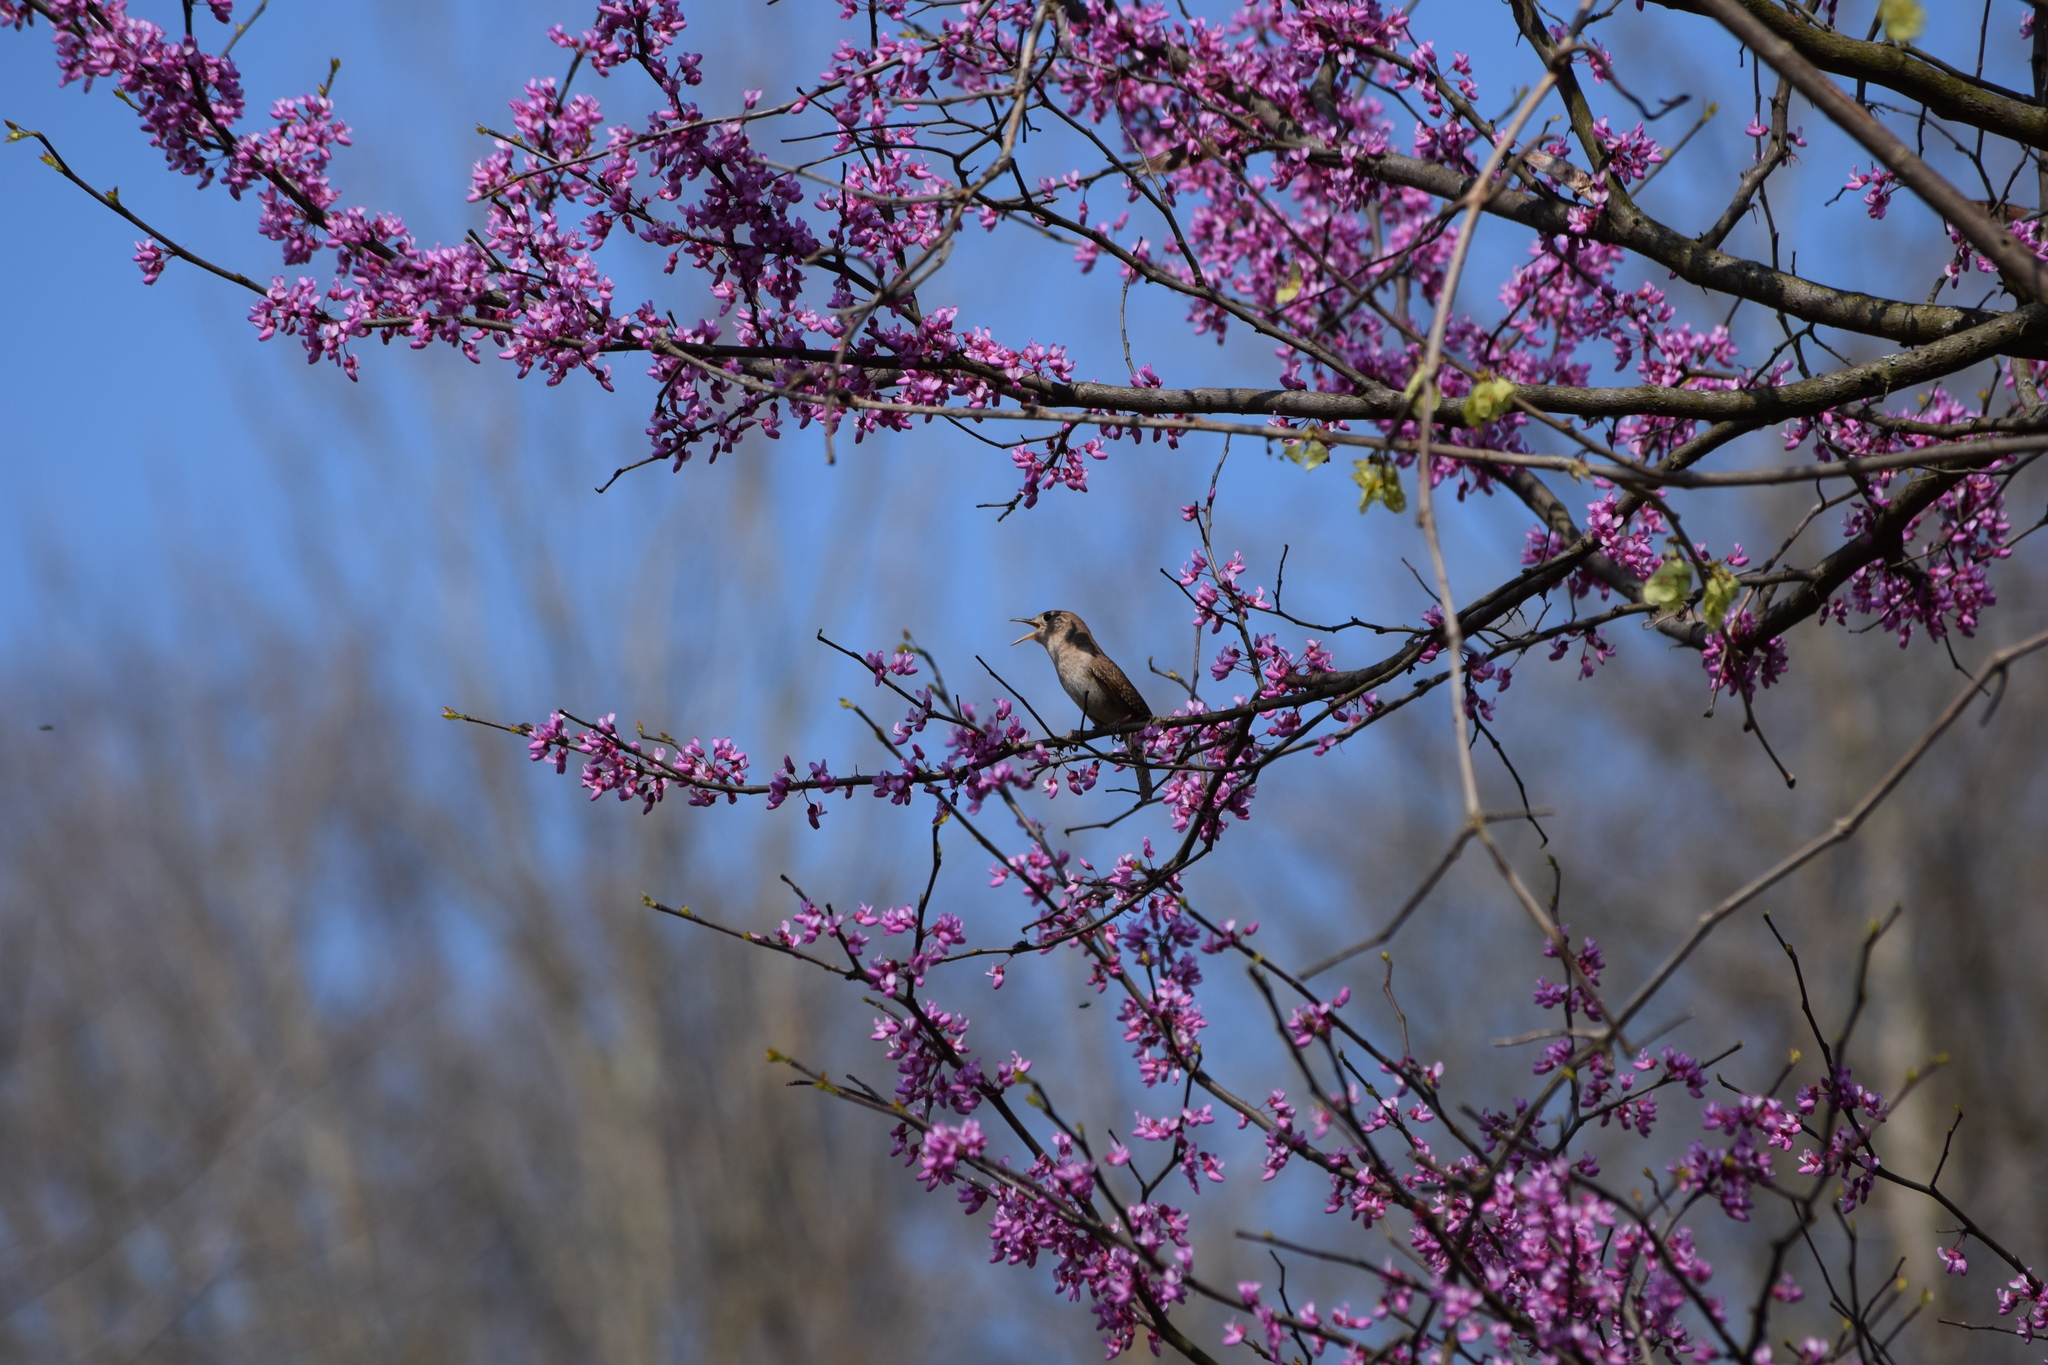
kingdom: Animalia
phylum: Chordata
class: Aves
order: Passeriformes
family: Troglodytidae
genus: Troglodytes
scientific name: Troglodytes aedon
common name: House wren
